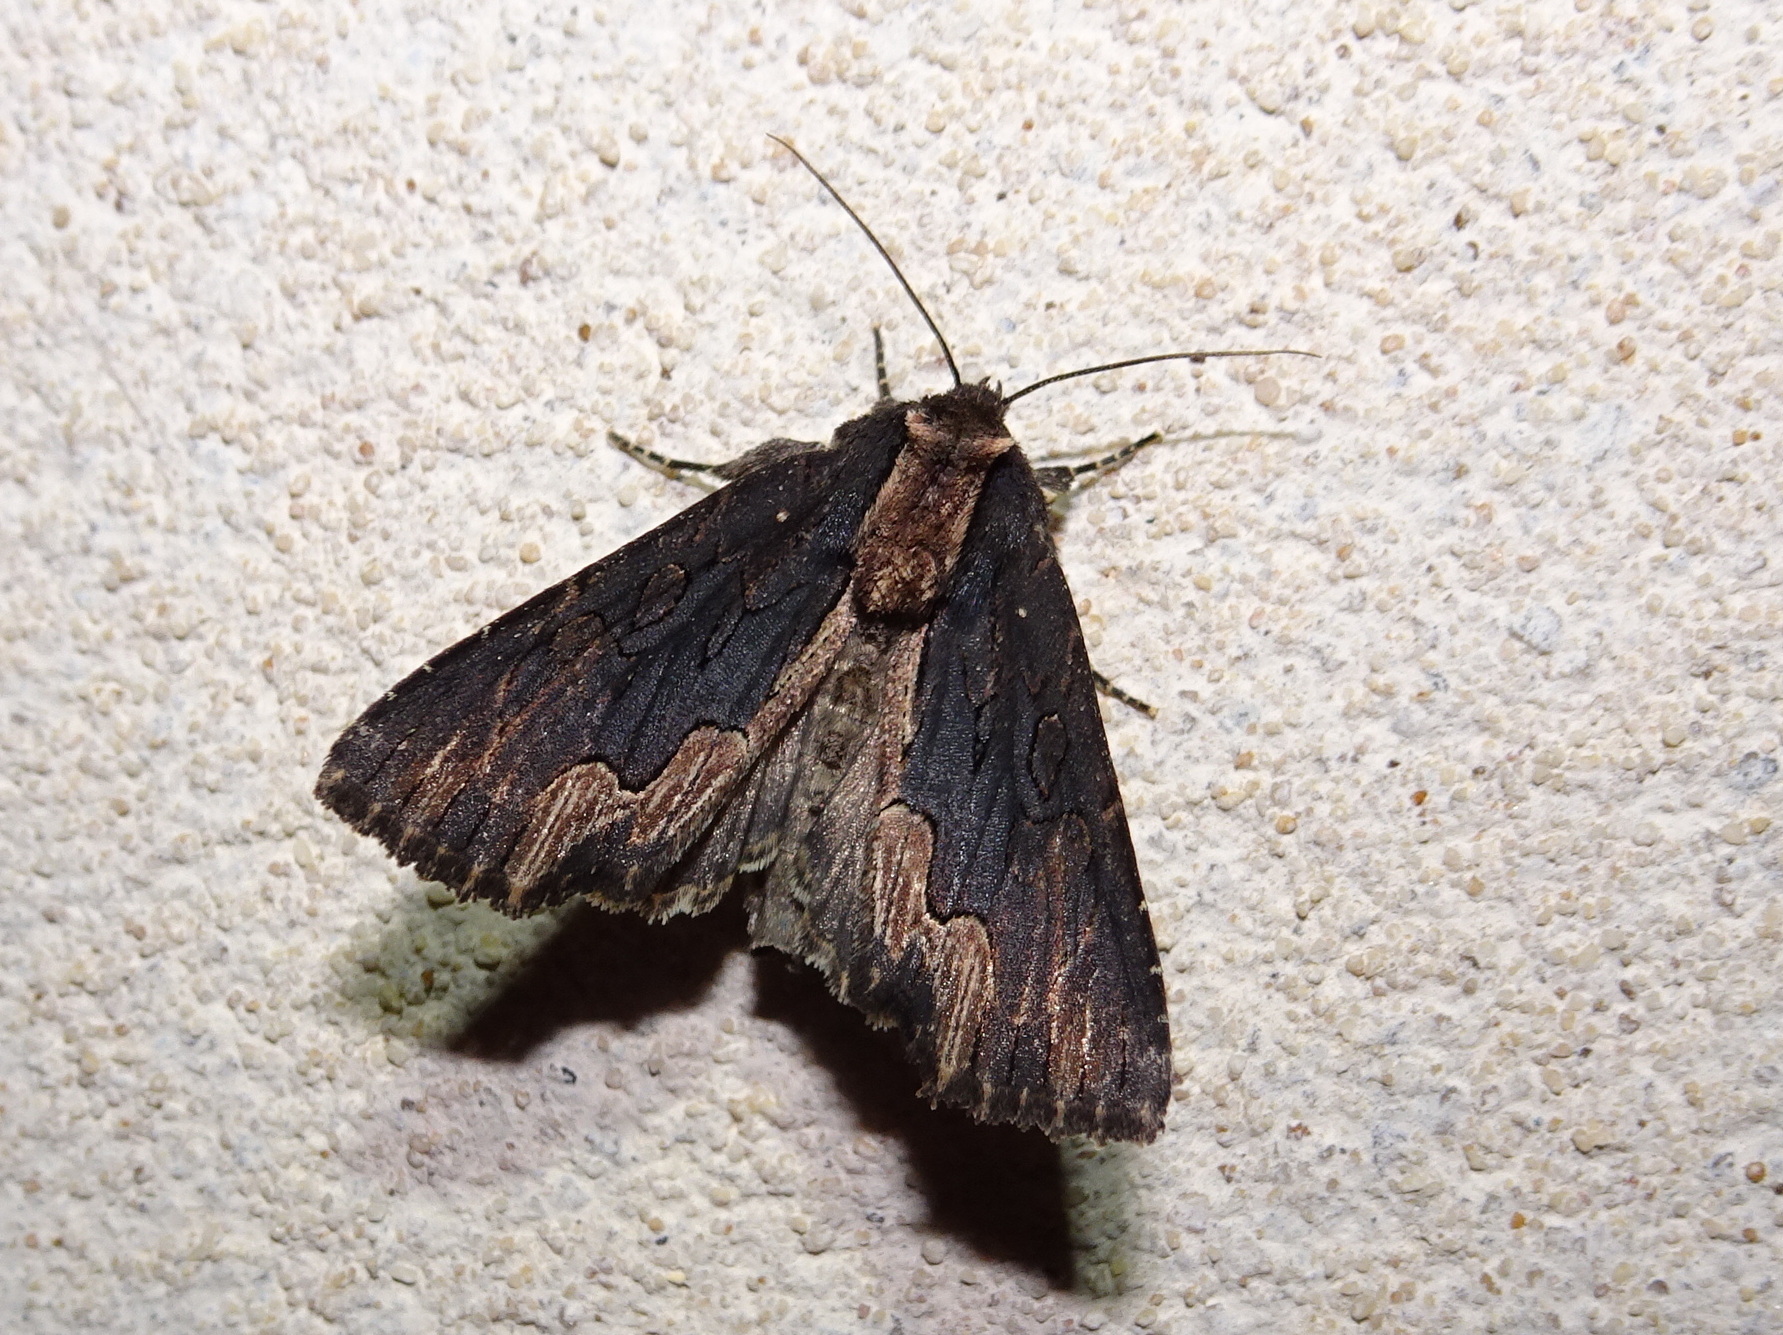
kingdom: Animalia
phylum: Arthropoda
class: Insecta
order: Lepidoptera
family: Noctuidae
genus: Dypterygia
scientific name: Dypterygia scabriuscula
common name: Bird's wing
